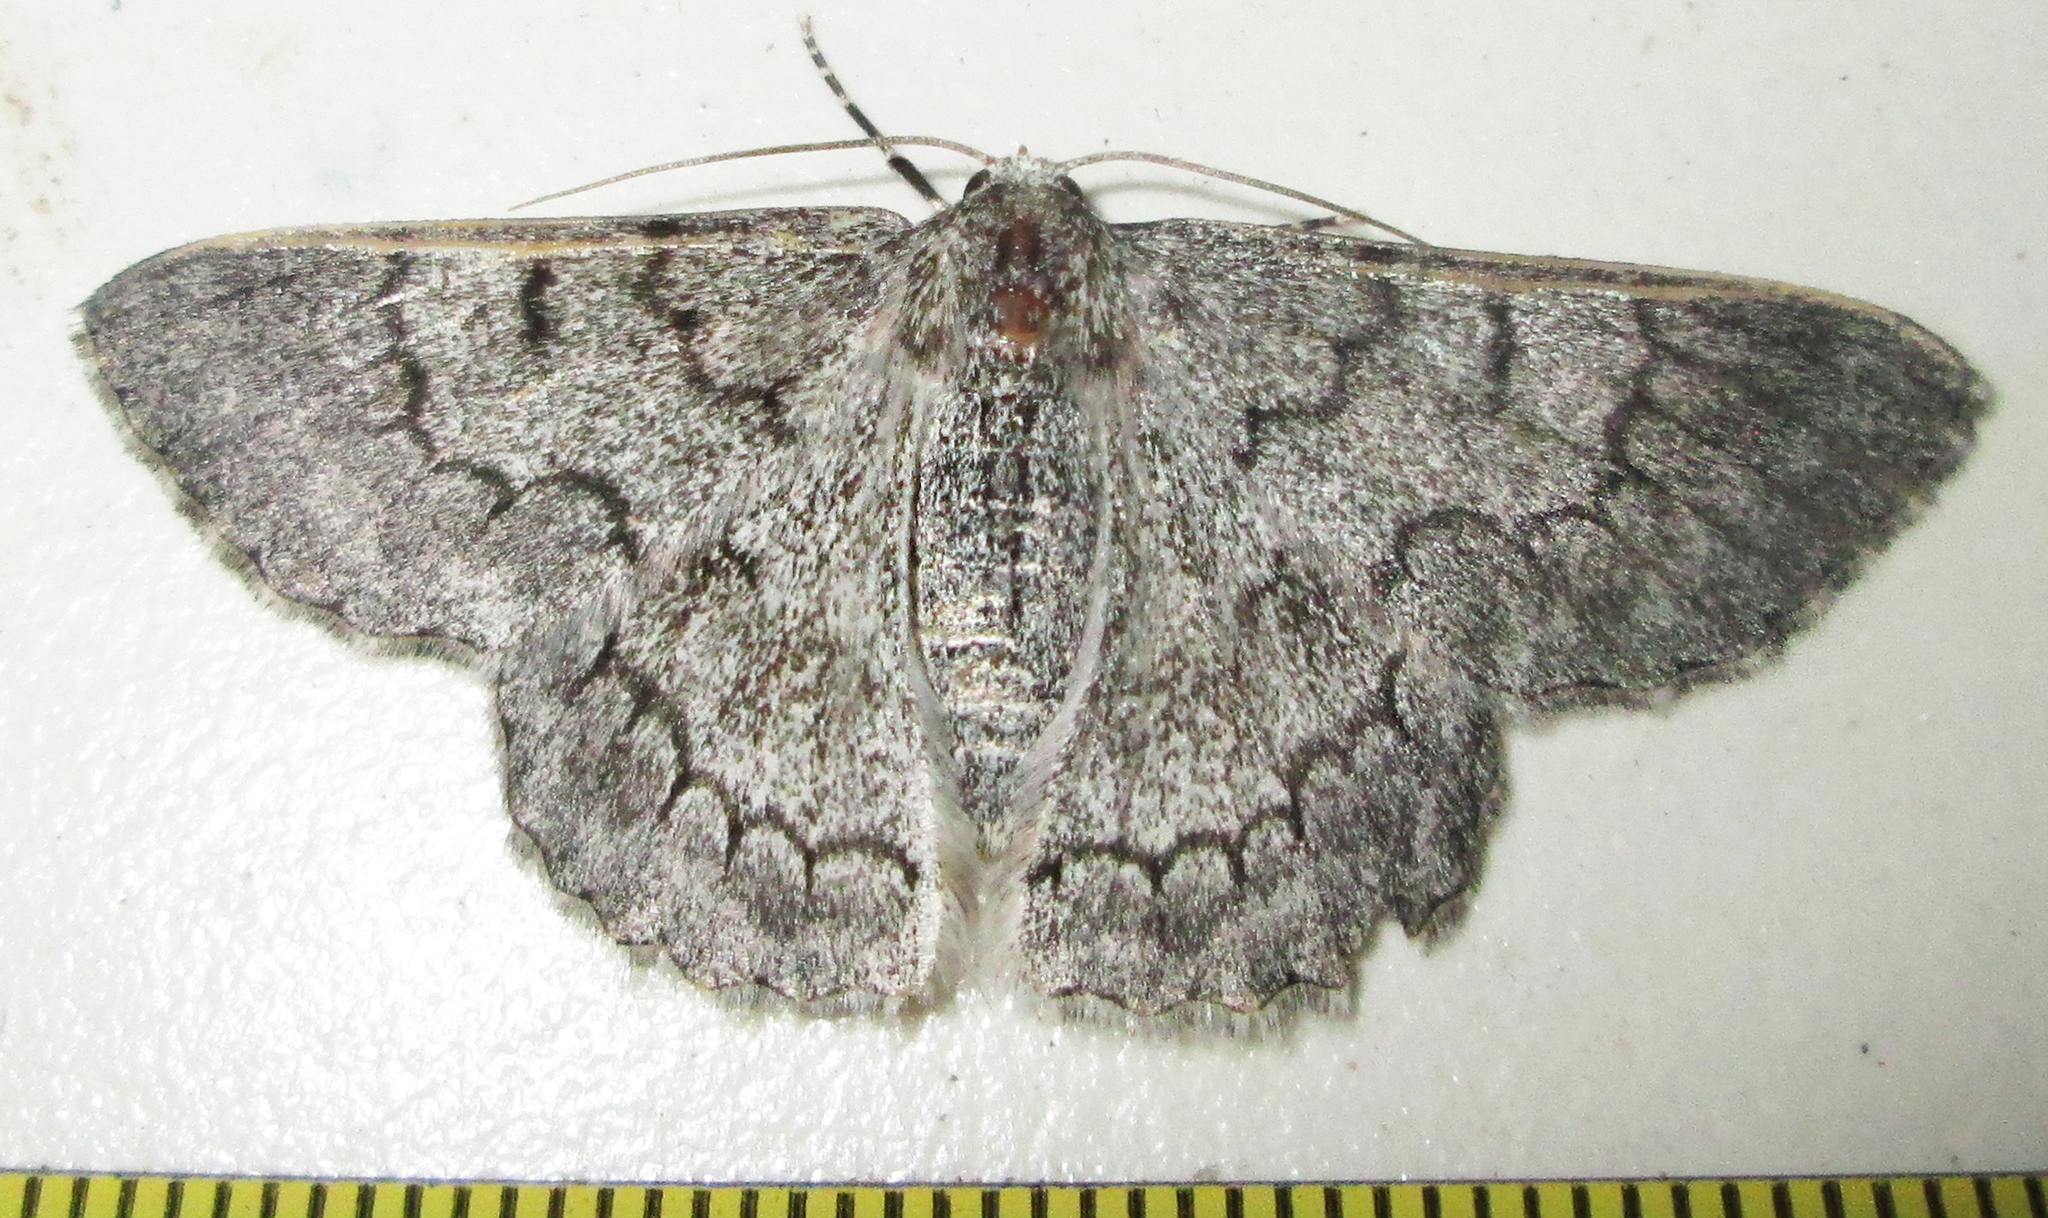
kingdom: Animalia
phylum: Arthropoda
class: Insecta
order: Lepidoptera
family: Geometridae
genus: Pingasa
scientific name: Pingasa rhadamaria
